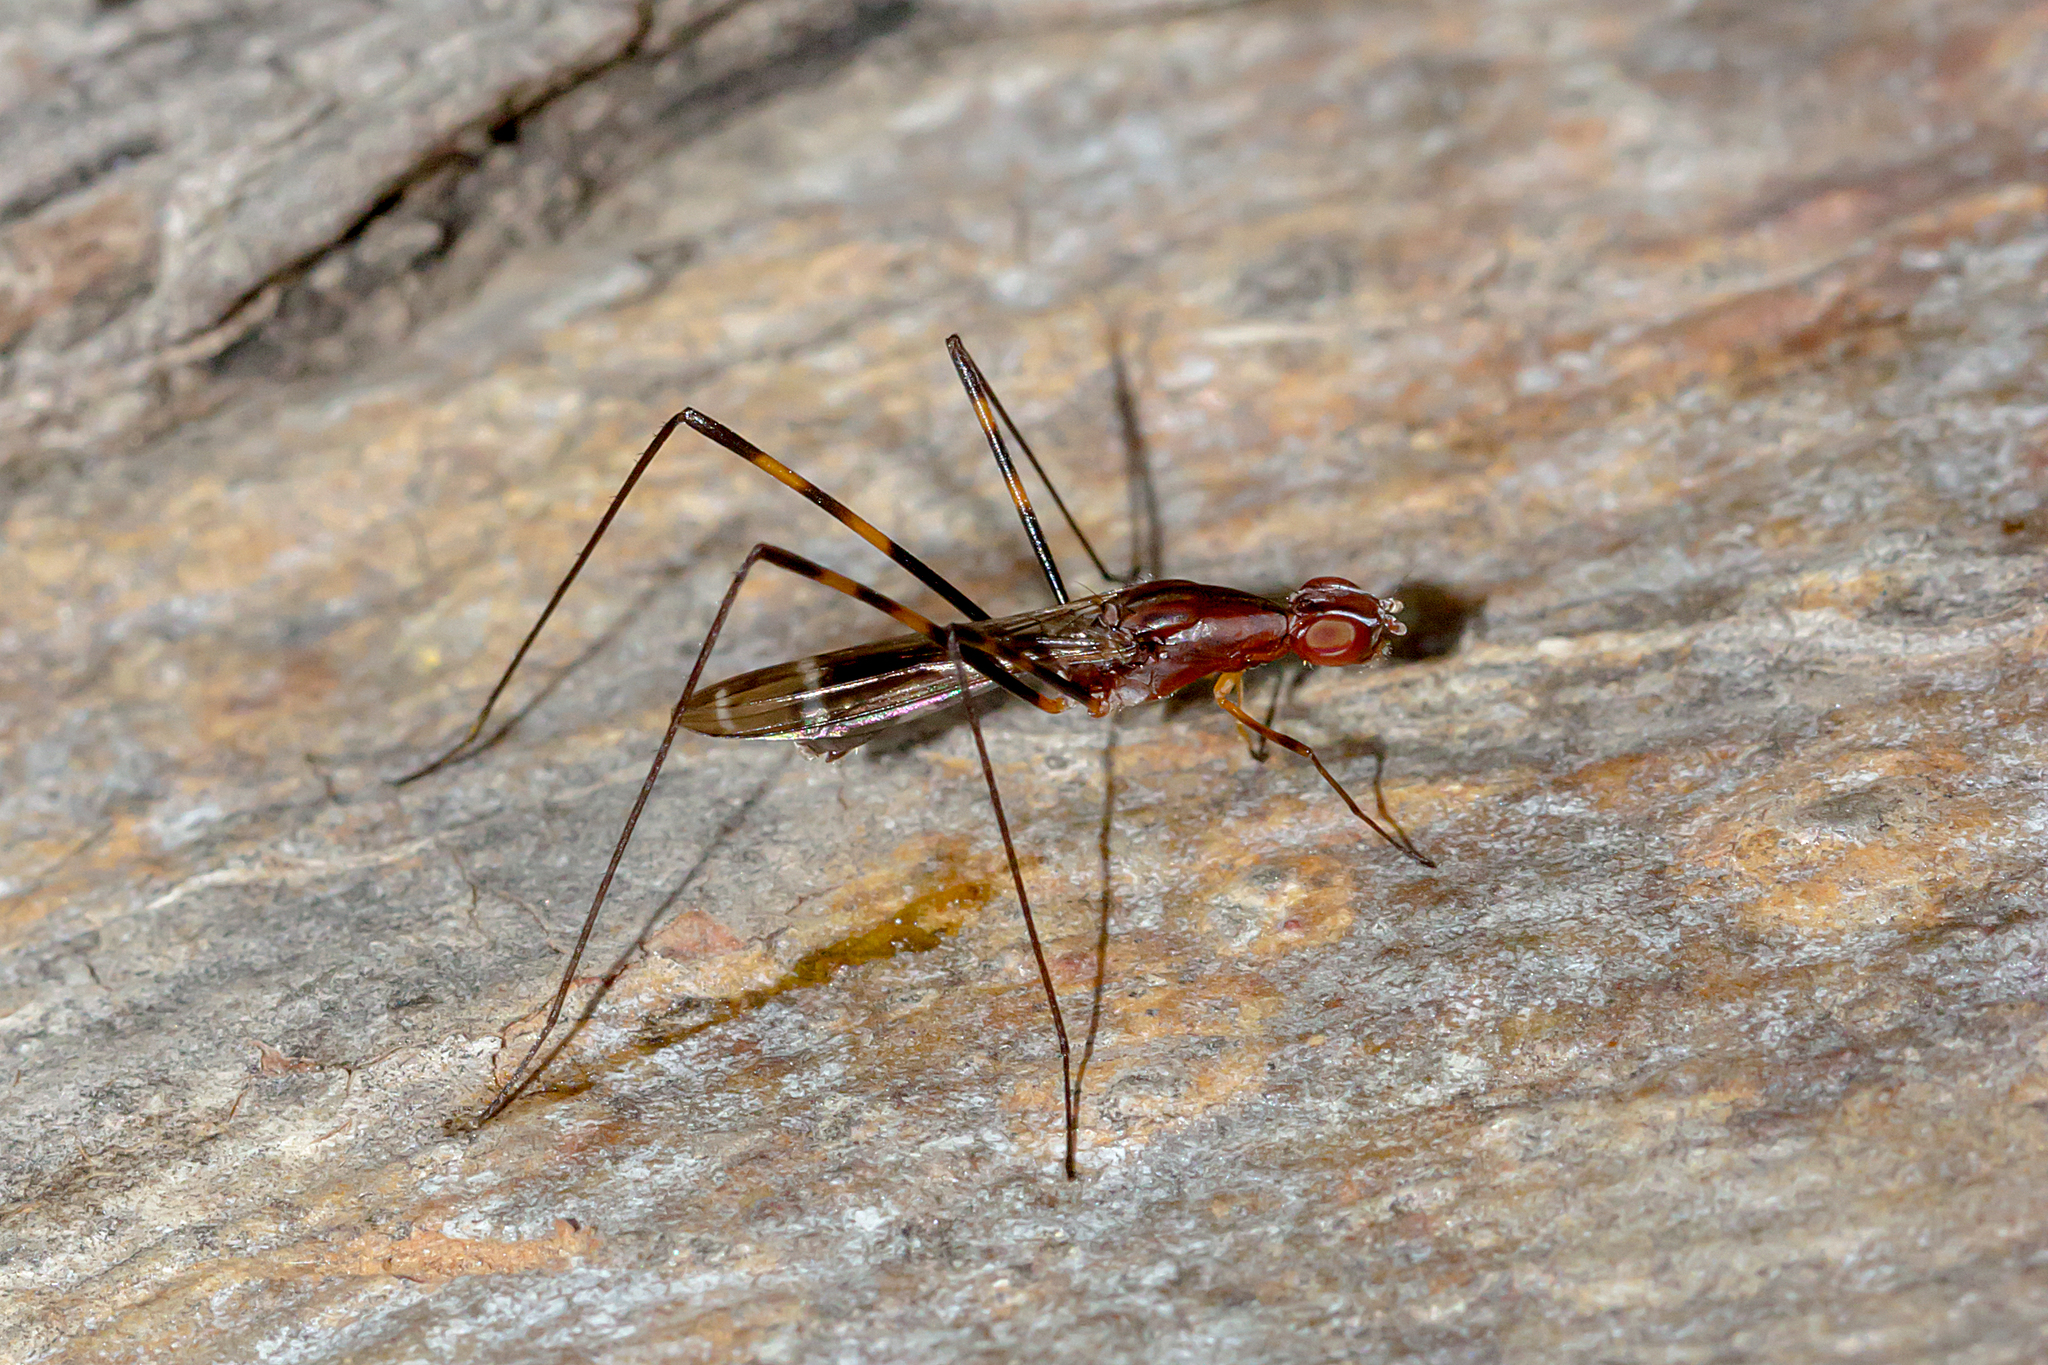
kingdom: Animalia
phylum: Arthropoda
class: Insecta
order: Diptera
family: Micropezidae
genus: Metopochetus
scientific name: Metopochetus bivittatus
